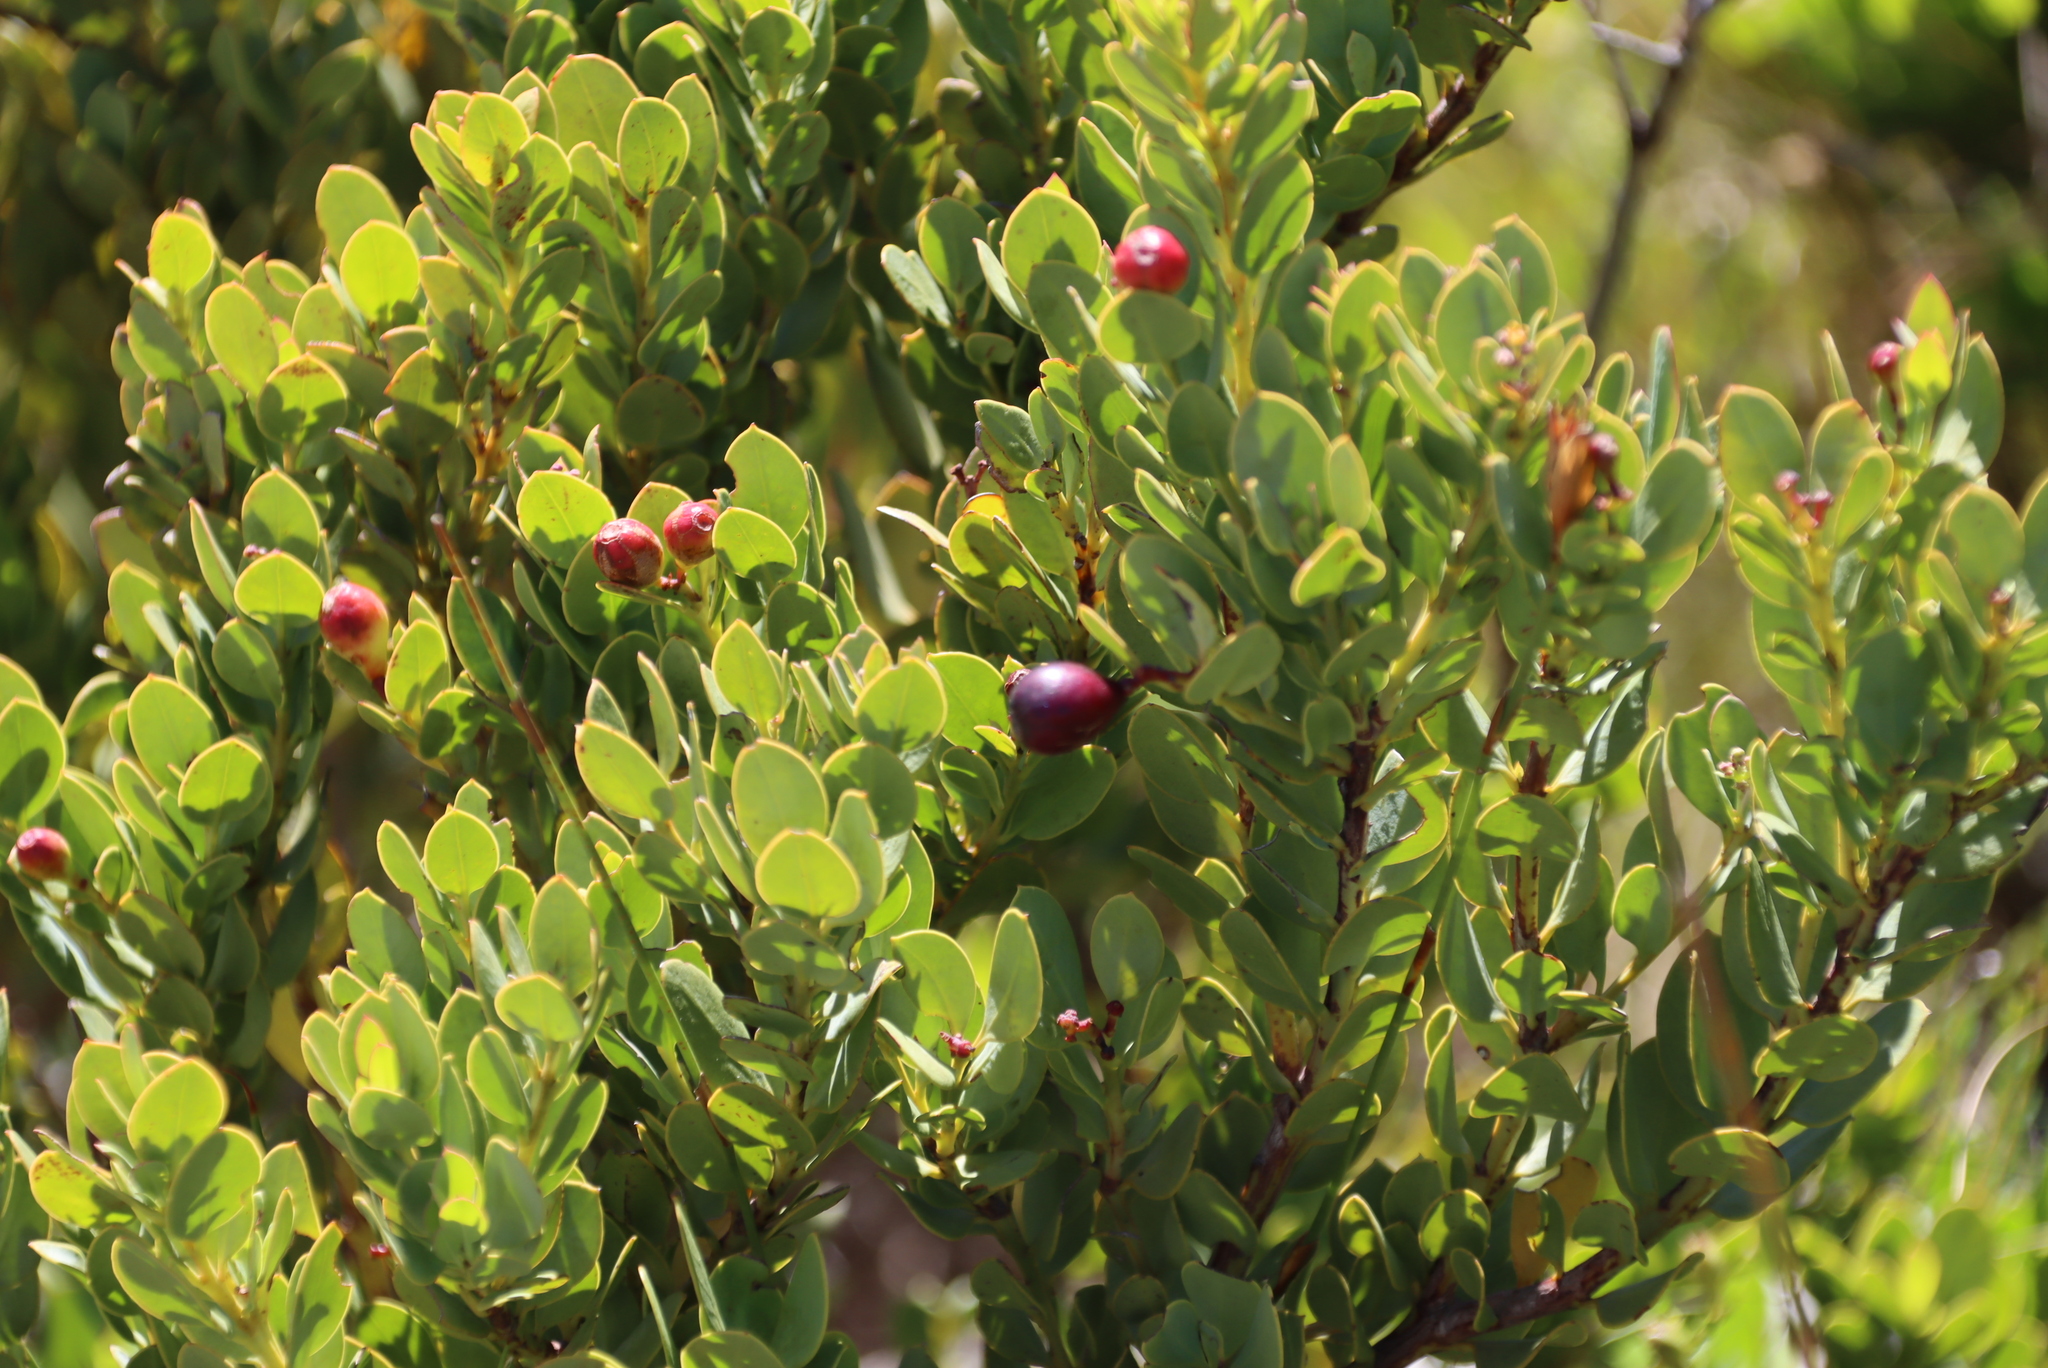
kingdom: Plantae
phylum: Tracheophyta
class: Magnoliopsida
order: Santalales
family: Santalaceae
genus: Osyris
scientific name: Osyris compressa
